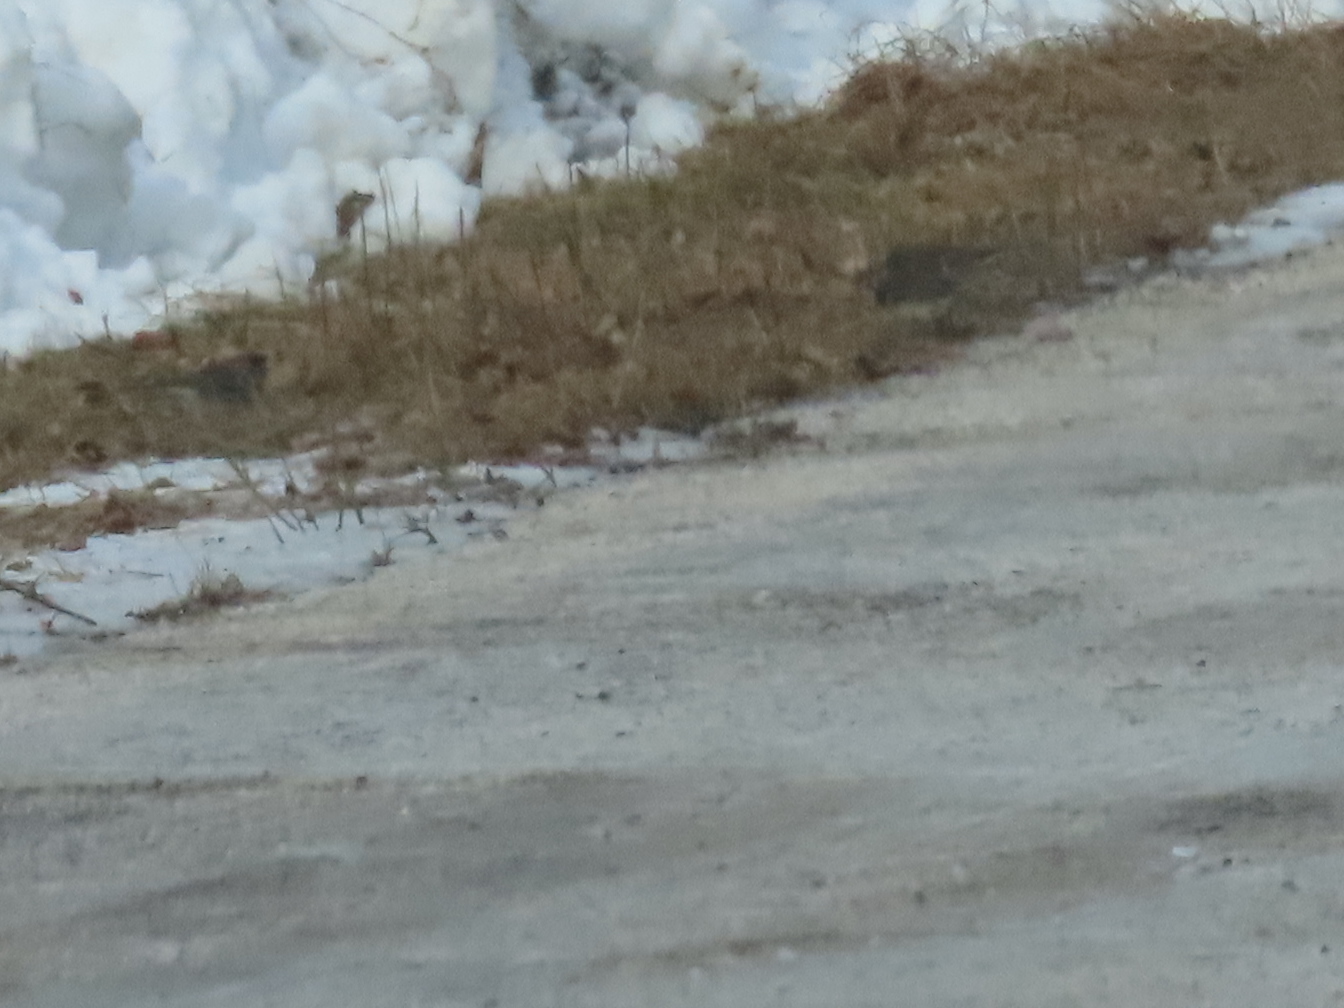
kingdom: Animalia
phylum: Chordata
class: Aves
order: Passeriformes
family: Passerellidae
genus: Junco
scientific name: Junco hyemalis
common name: Dark-eyed junco
